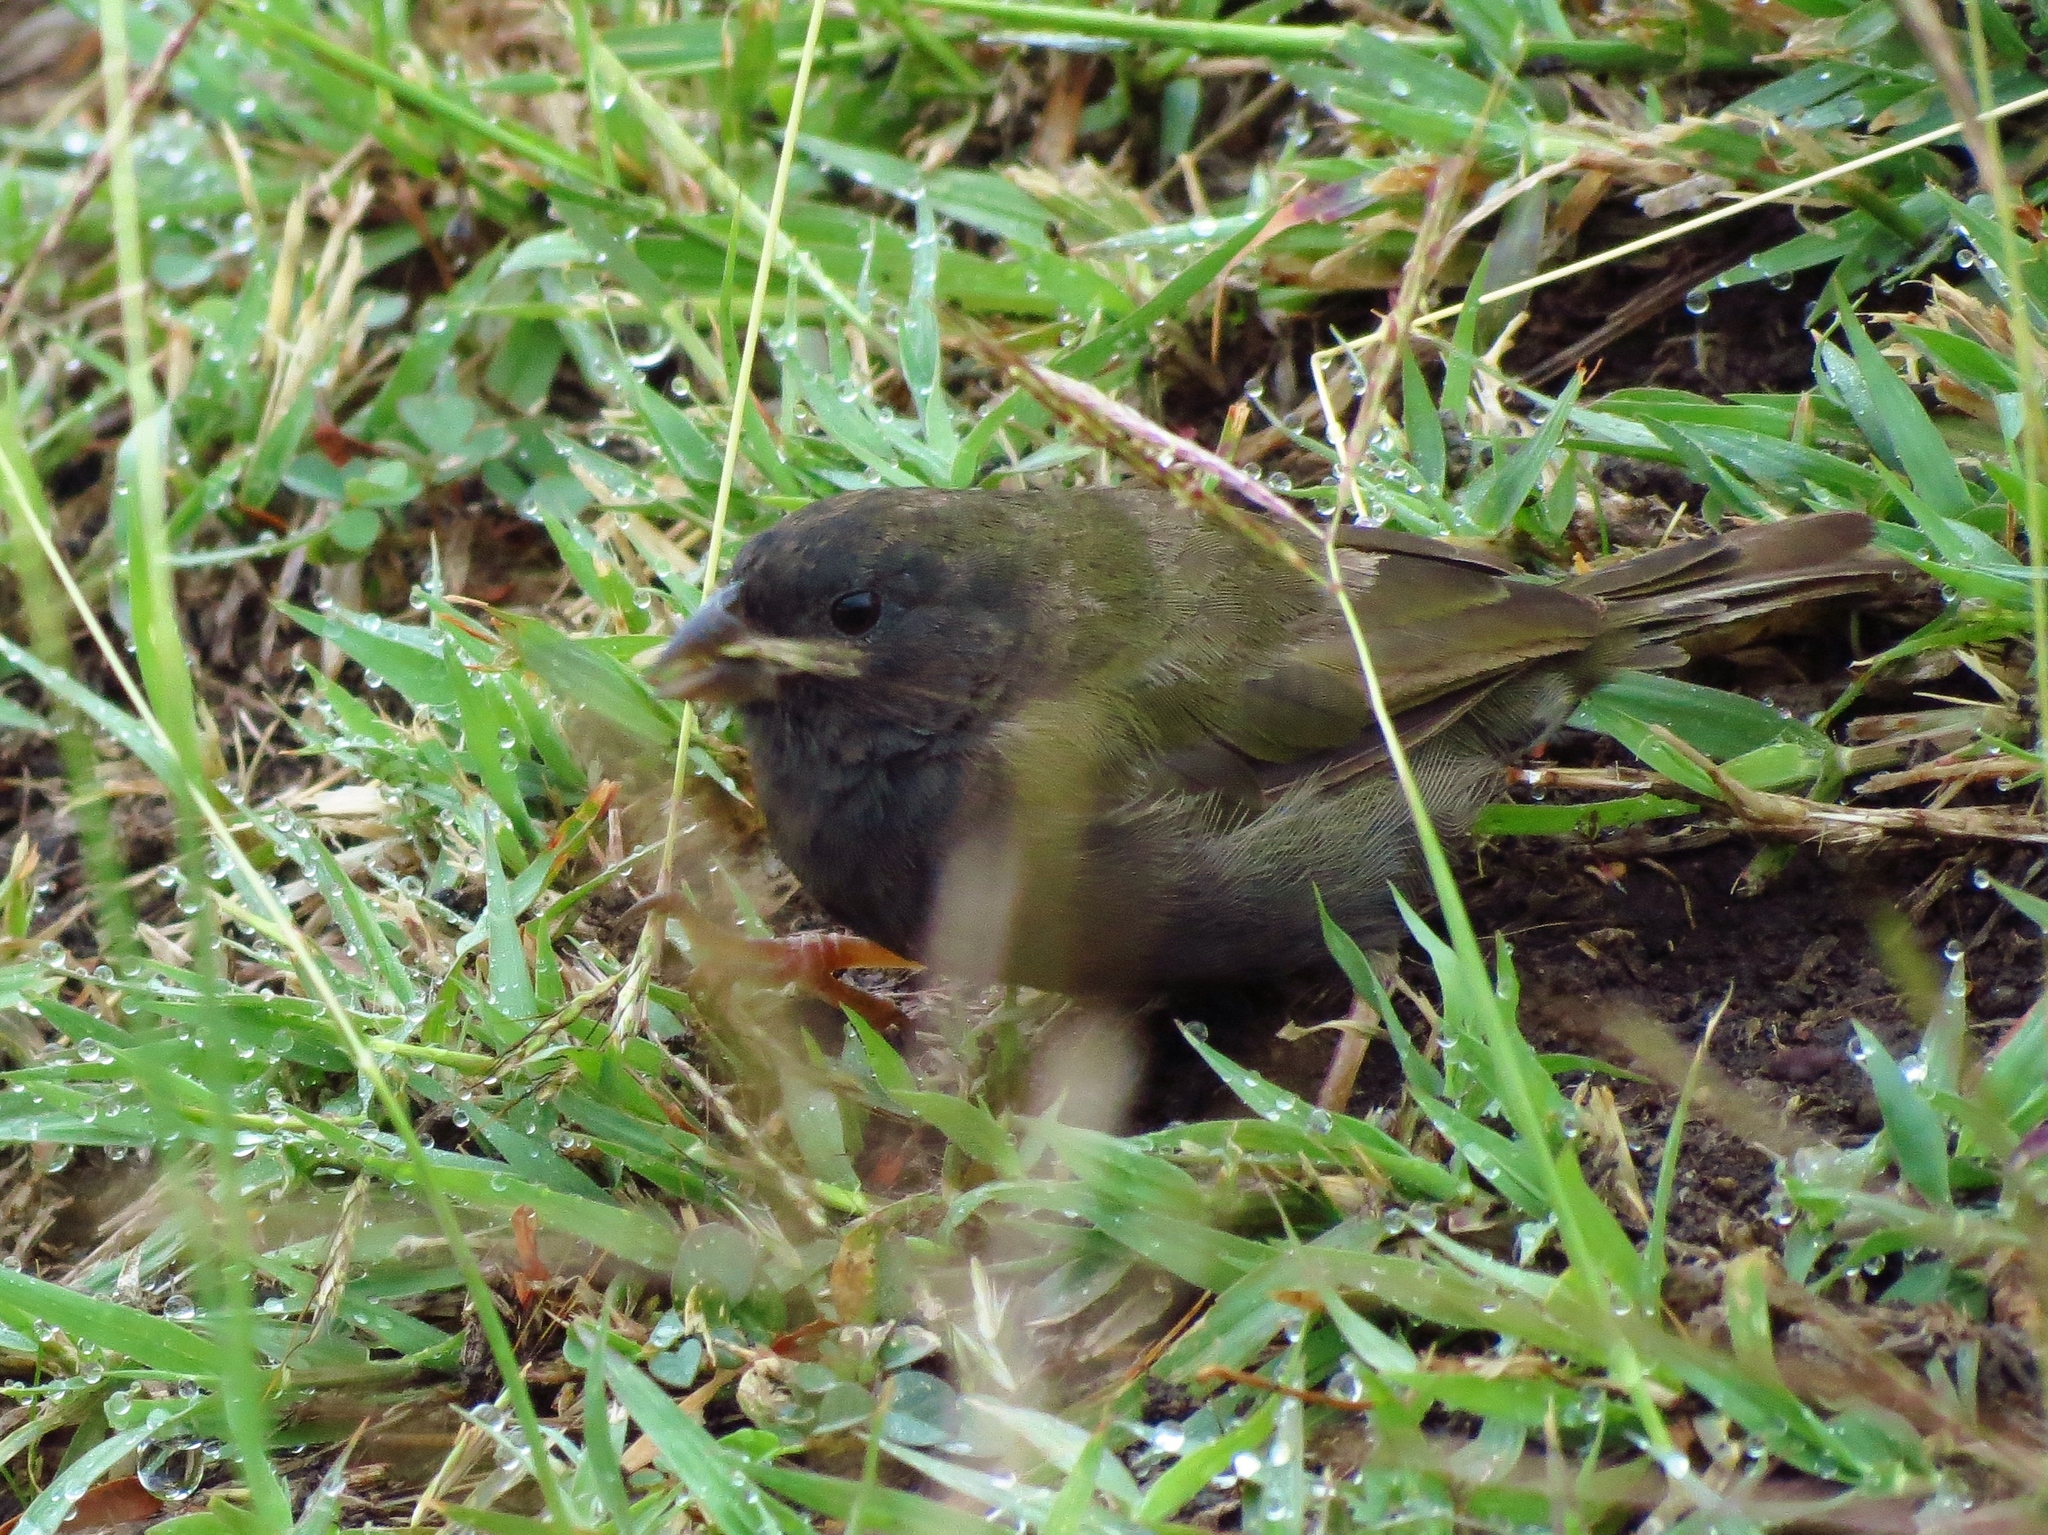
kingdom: Animalia
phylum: Chordata
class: Aves
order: Passeriformes
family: Thraupidae
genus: Melanospiza
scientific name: Melanospiza bicolor
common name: Black-faced grassquit
